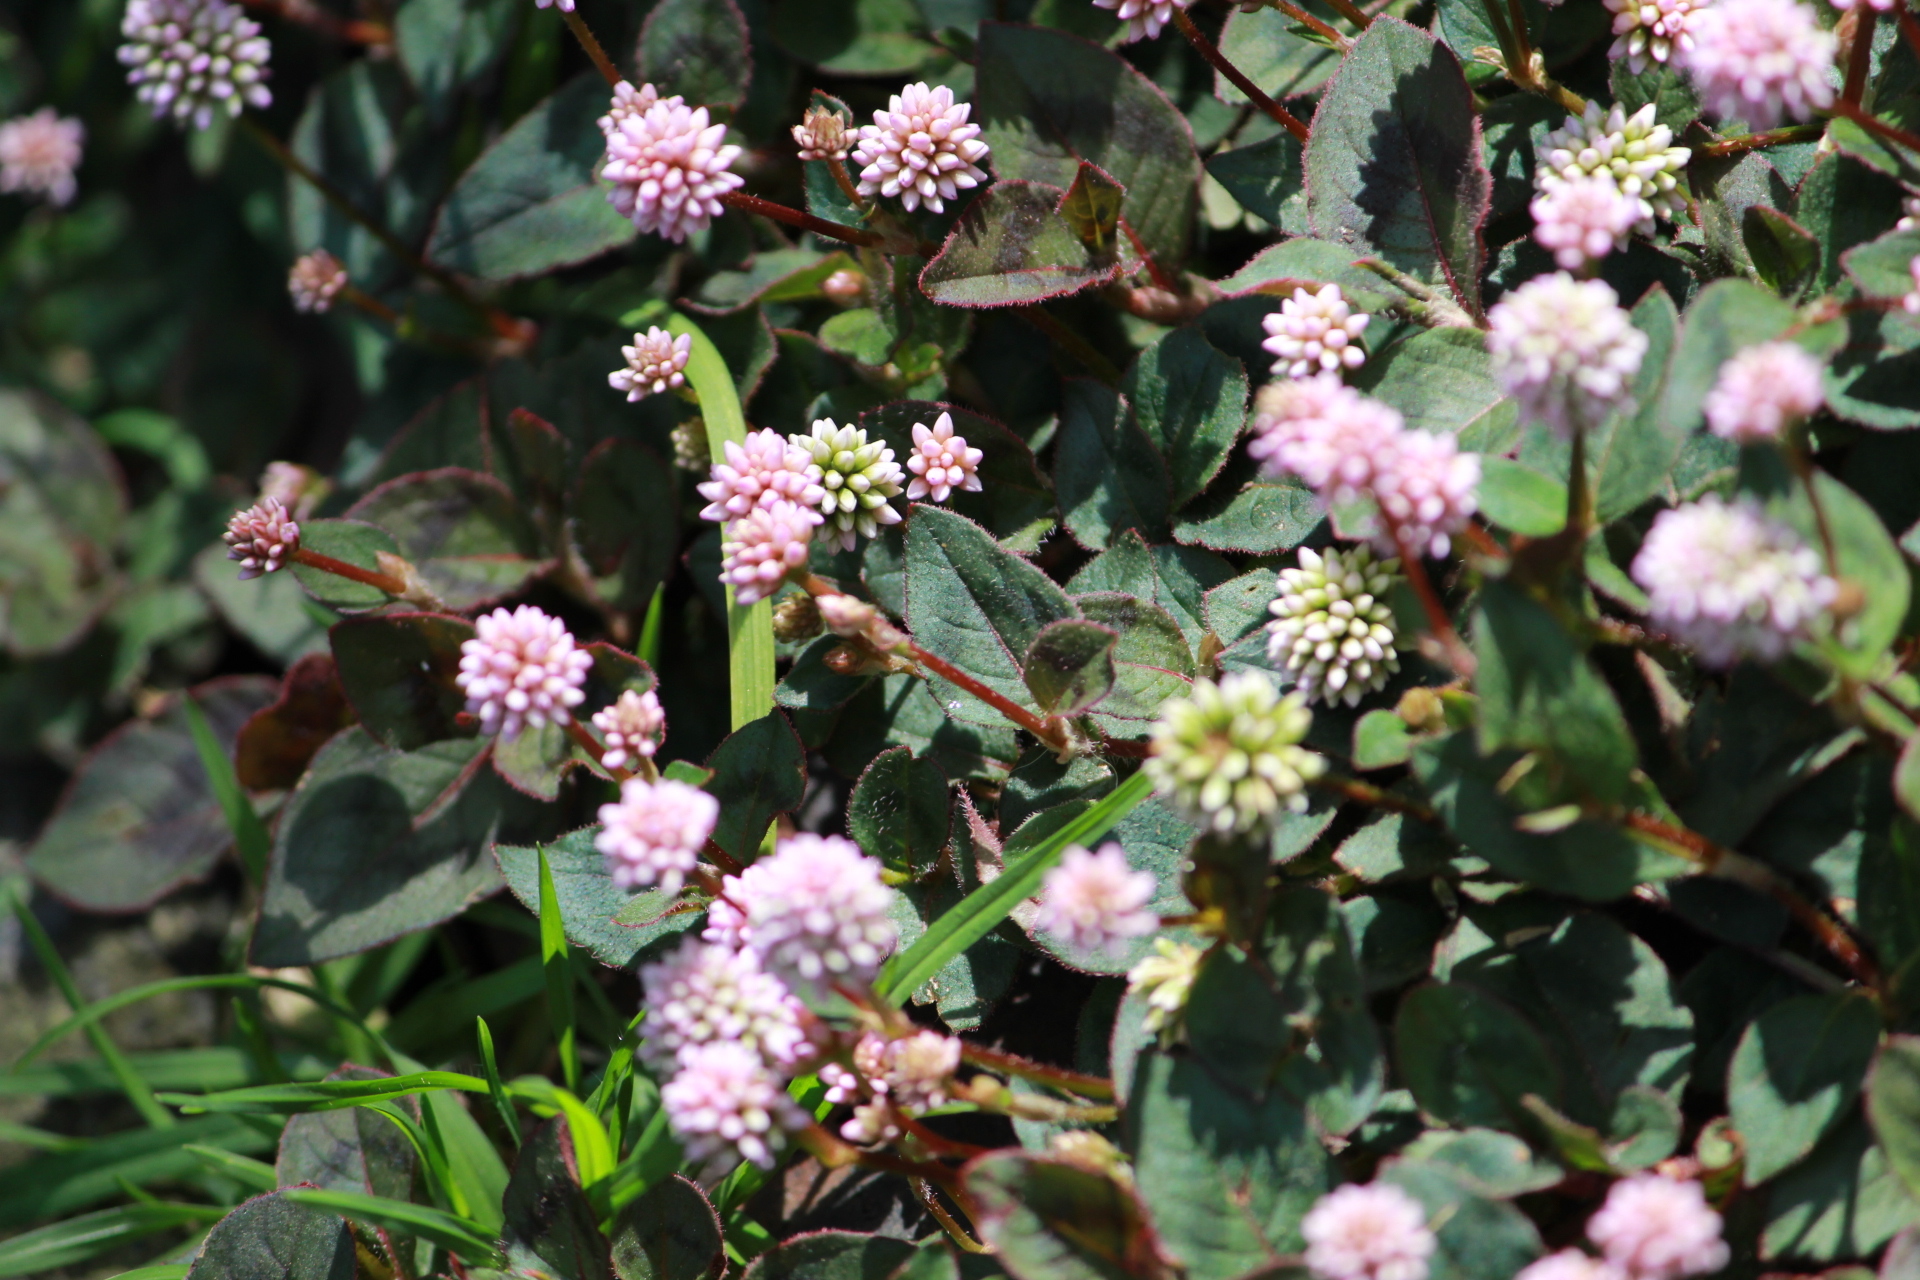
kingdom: Plantae
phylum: Tracheophyta
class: Magnoliopsida
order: Caryophyllales
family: Polygonaceae
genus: Persicaria
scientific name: Persicaria capitata
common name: Pinkhead smartweed
